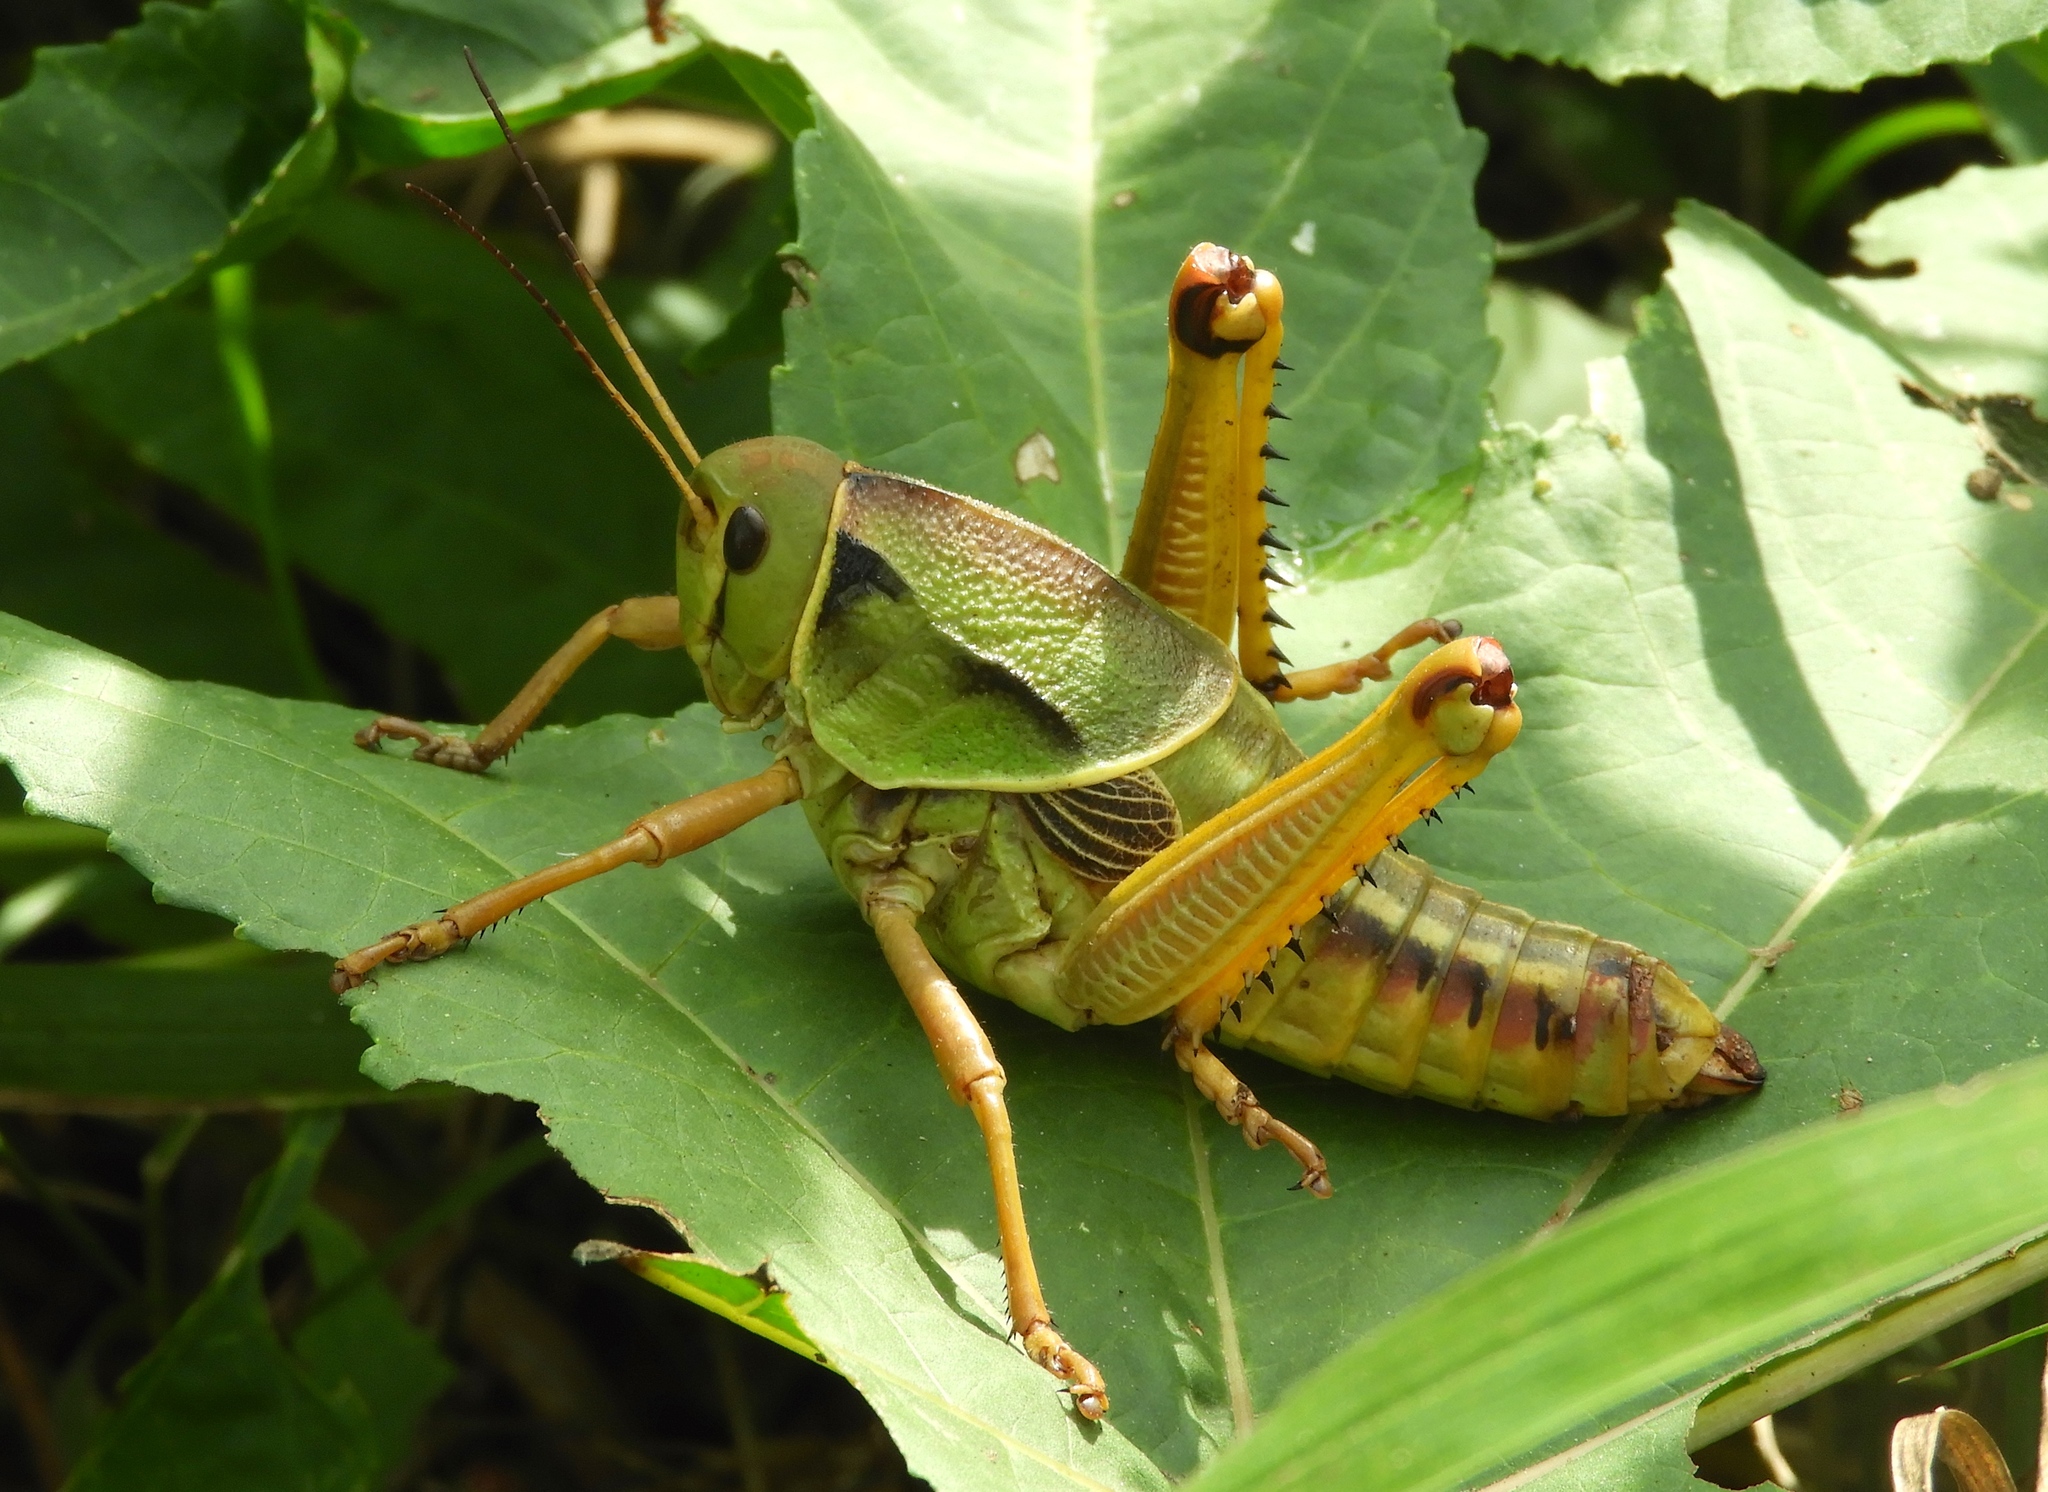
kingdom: Animalia
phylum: Arthropoda
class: Insecta
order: Orthoptera
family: Romaleidae
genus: Brachystola
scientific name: Brachystola behrensii
